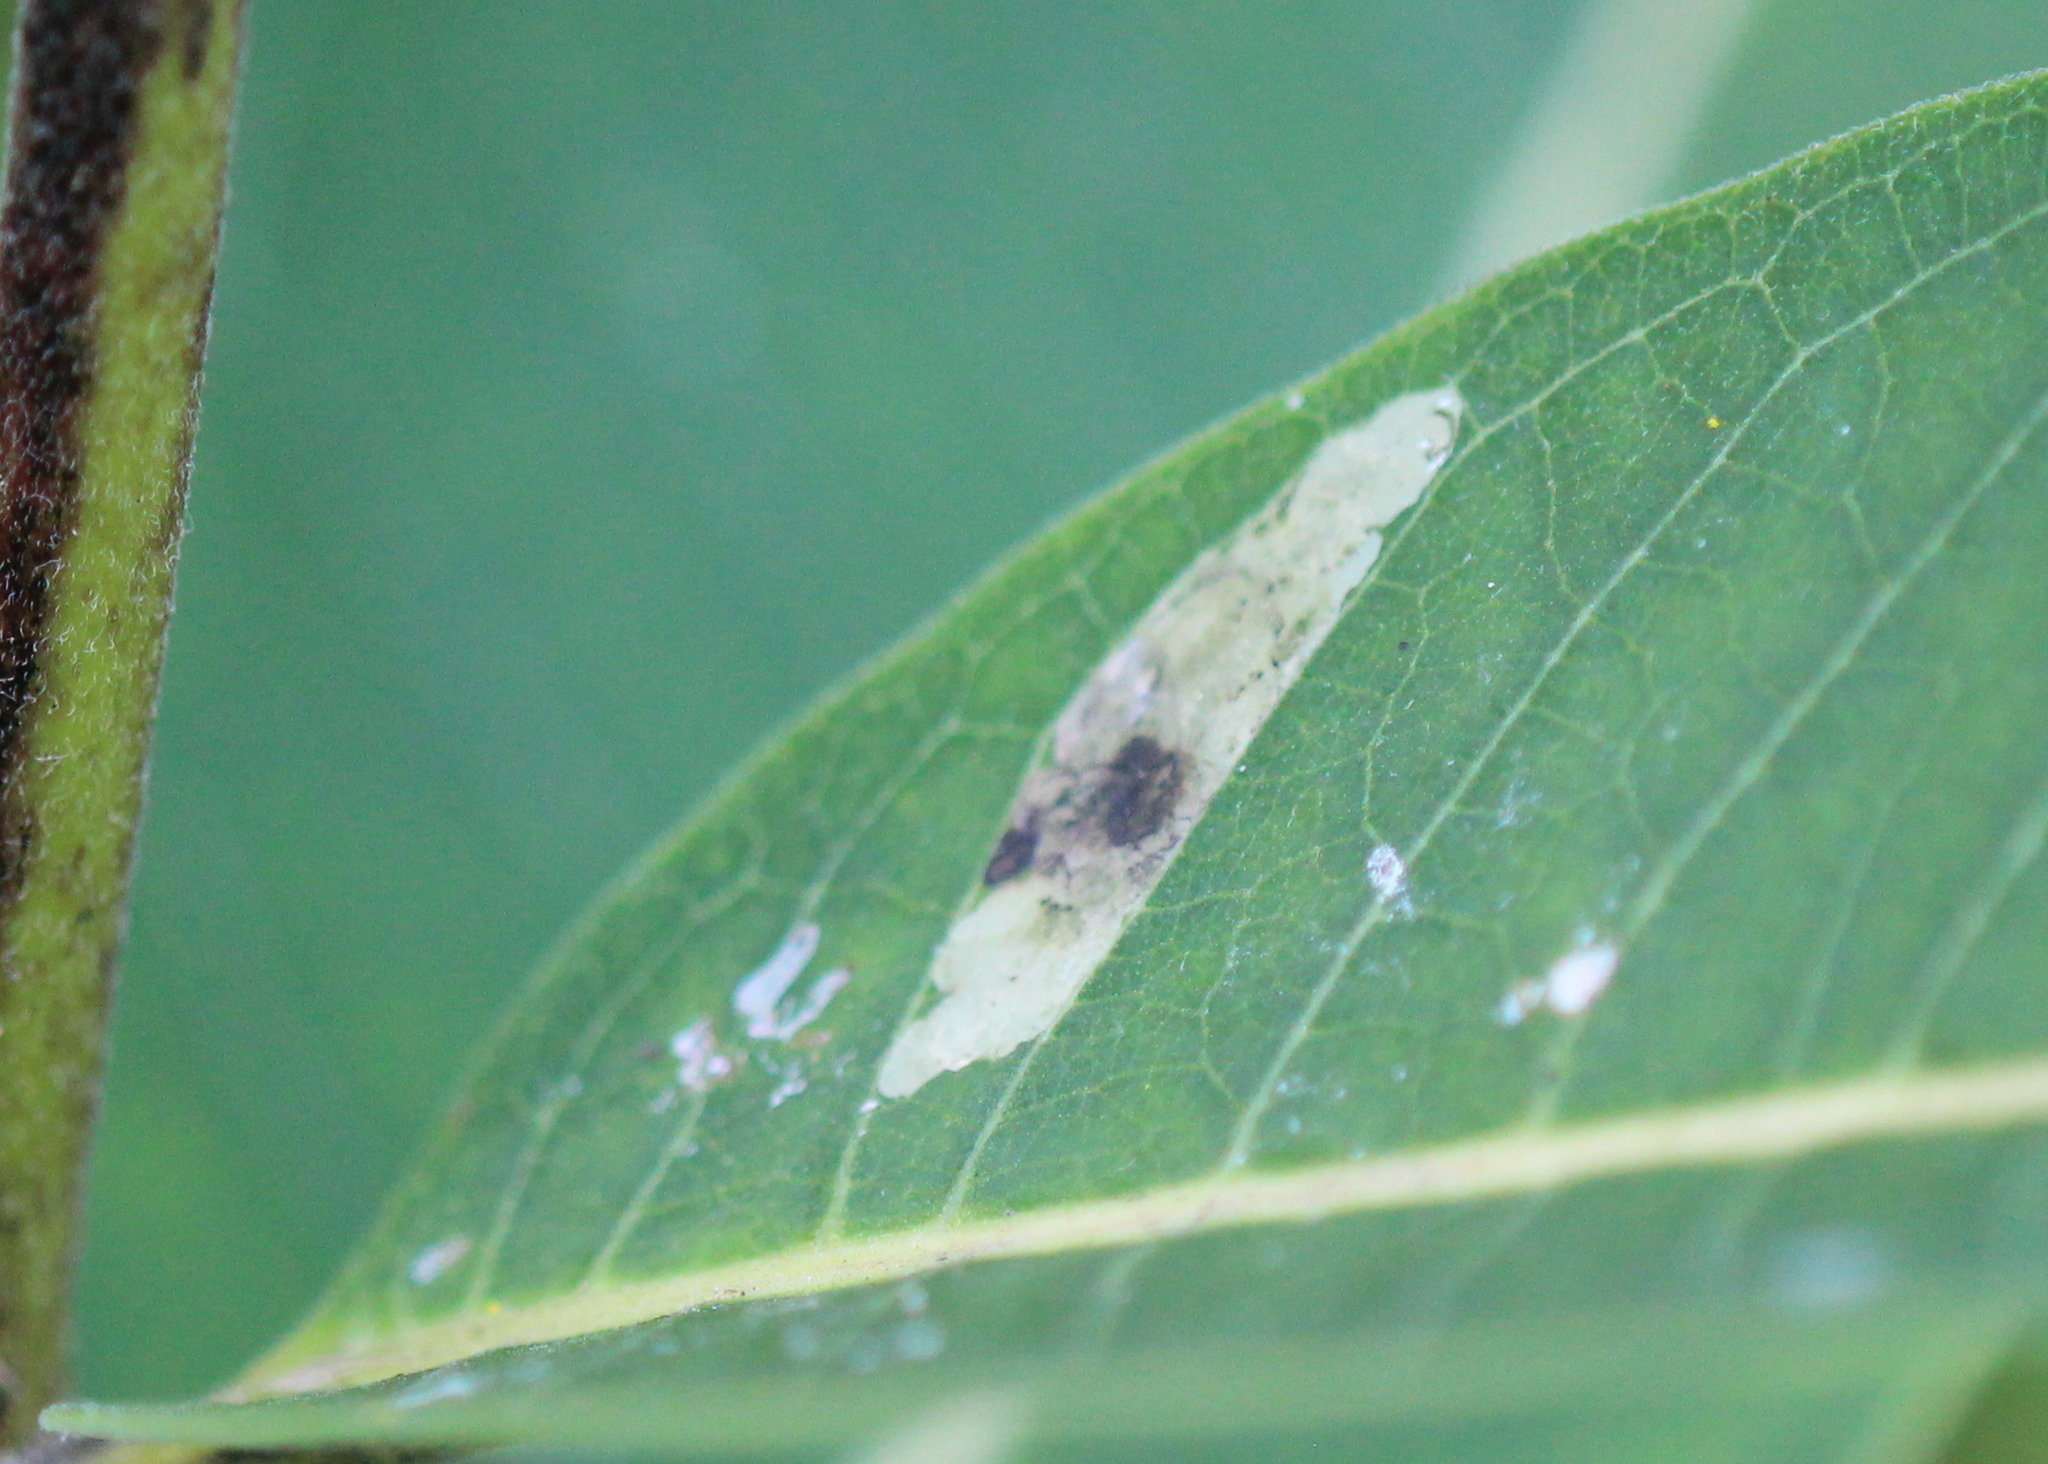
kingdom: Animalia
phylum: Arthropoda
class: Insecta
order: Diptera
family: Agromyzidae
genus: Liriomyza
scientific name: Liriomyza asclepiadis
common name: Milkweed leaf-miner fly
